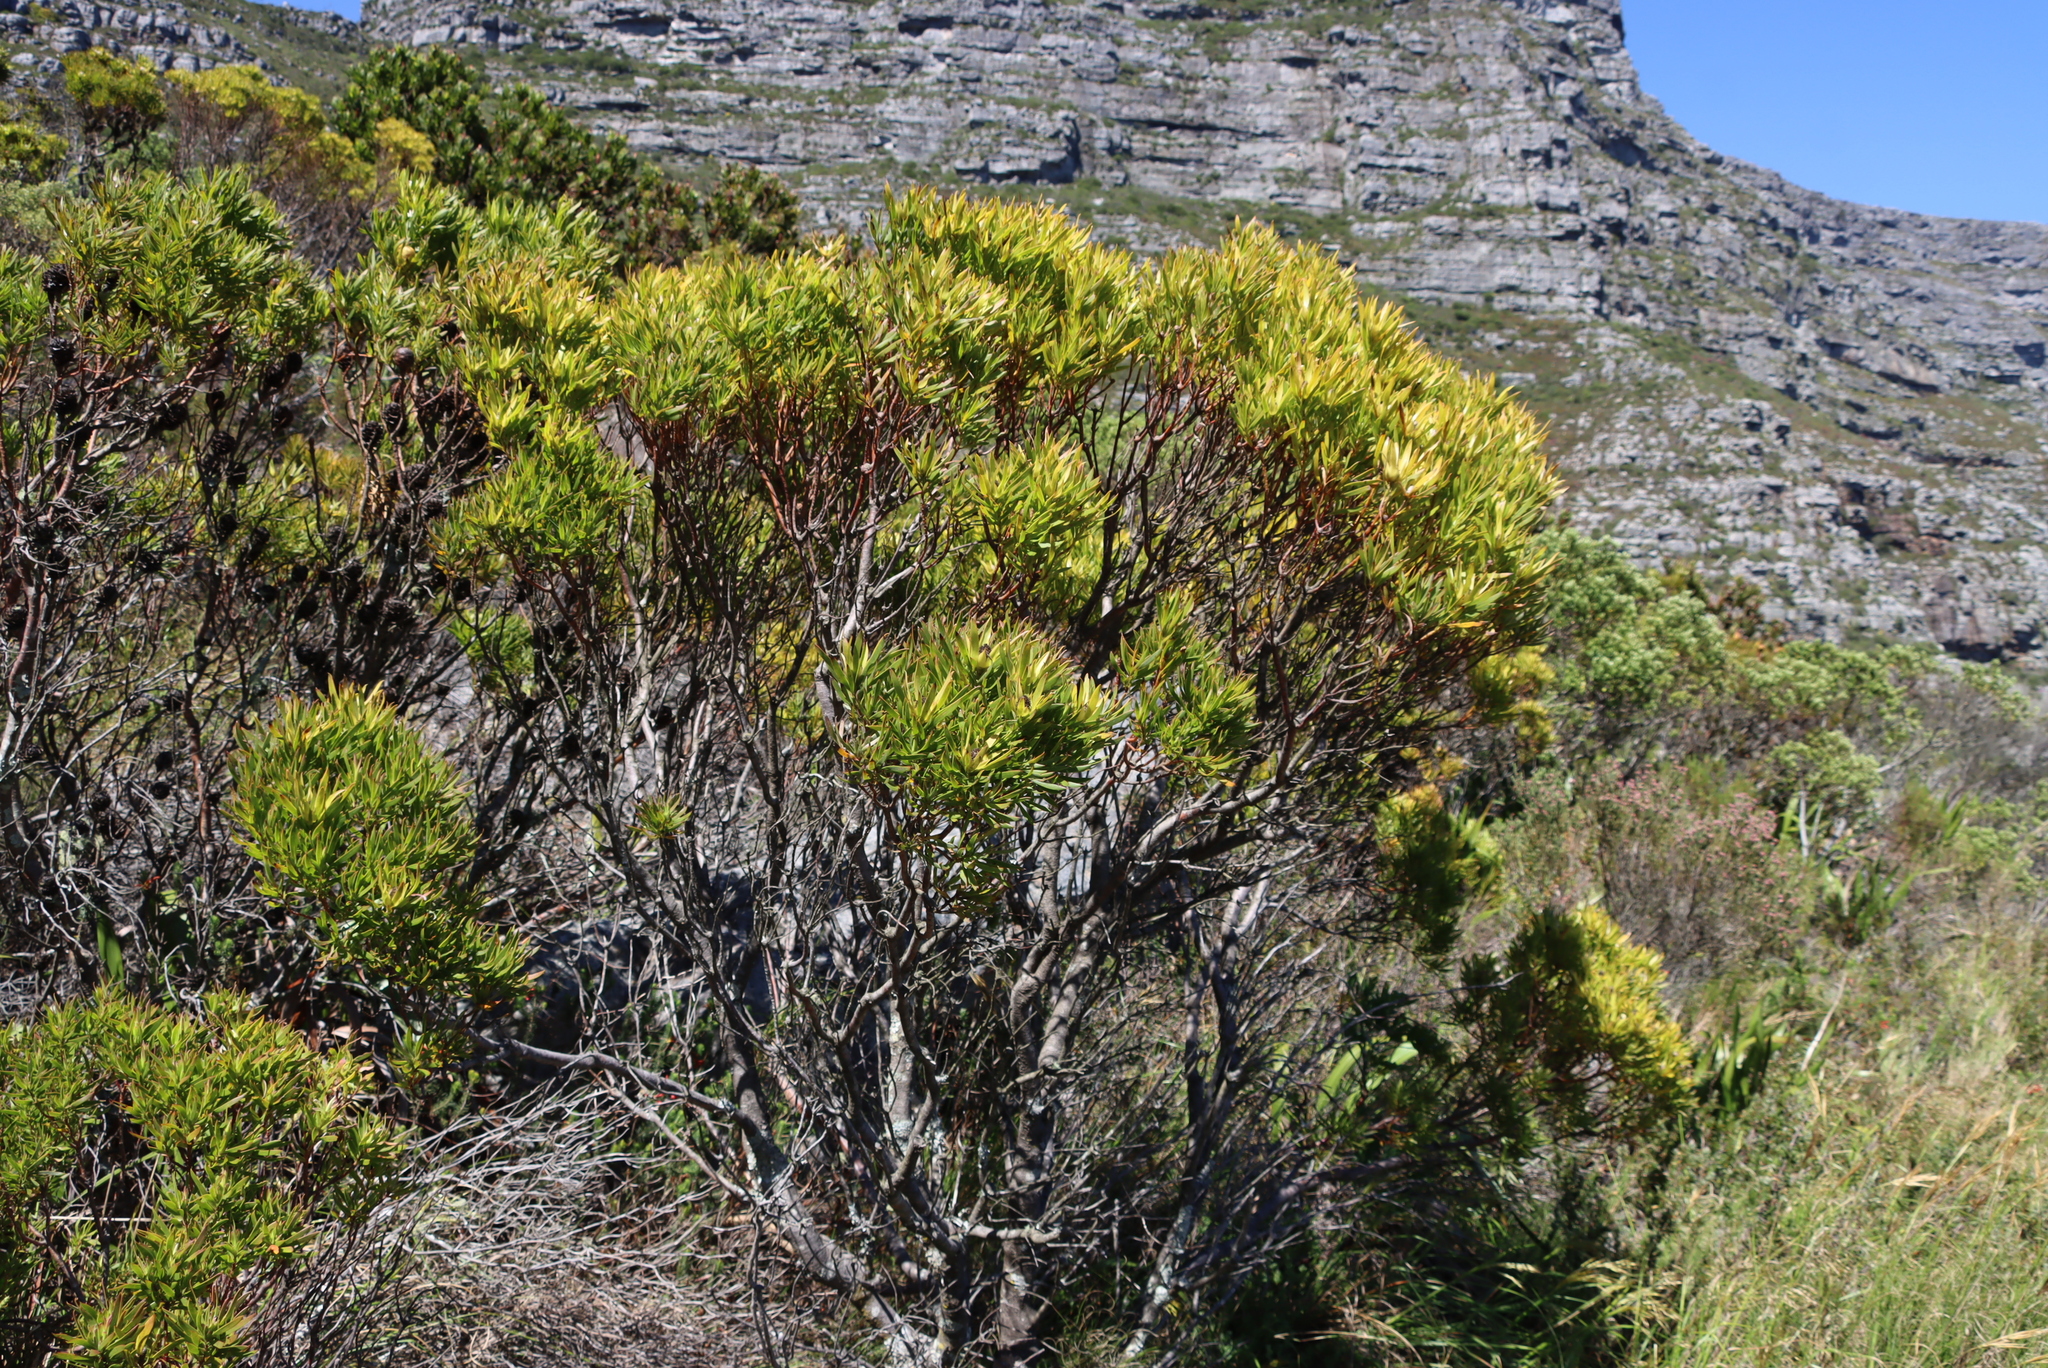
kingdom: Plantae
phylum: Tracheophyta
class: Magnoliopsida
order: Proteales
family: Proteaceae
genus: Leucadendron
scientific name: Leucadendron xanthoconus
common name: Sickle-leaf conebush
